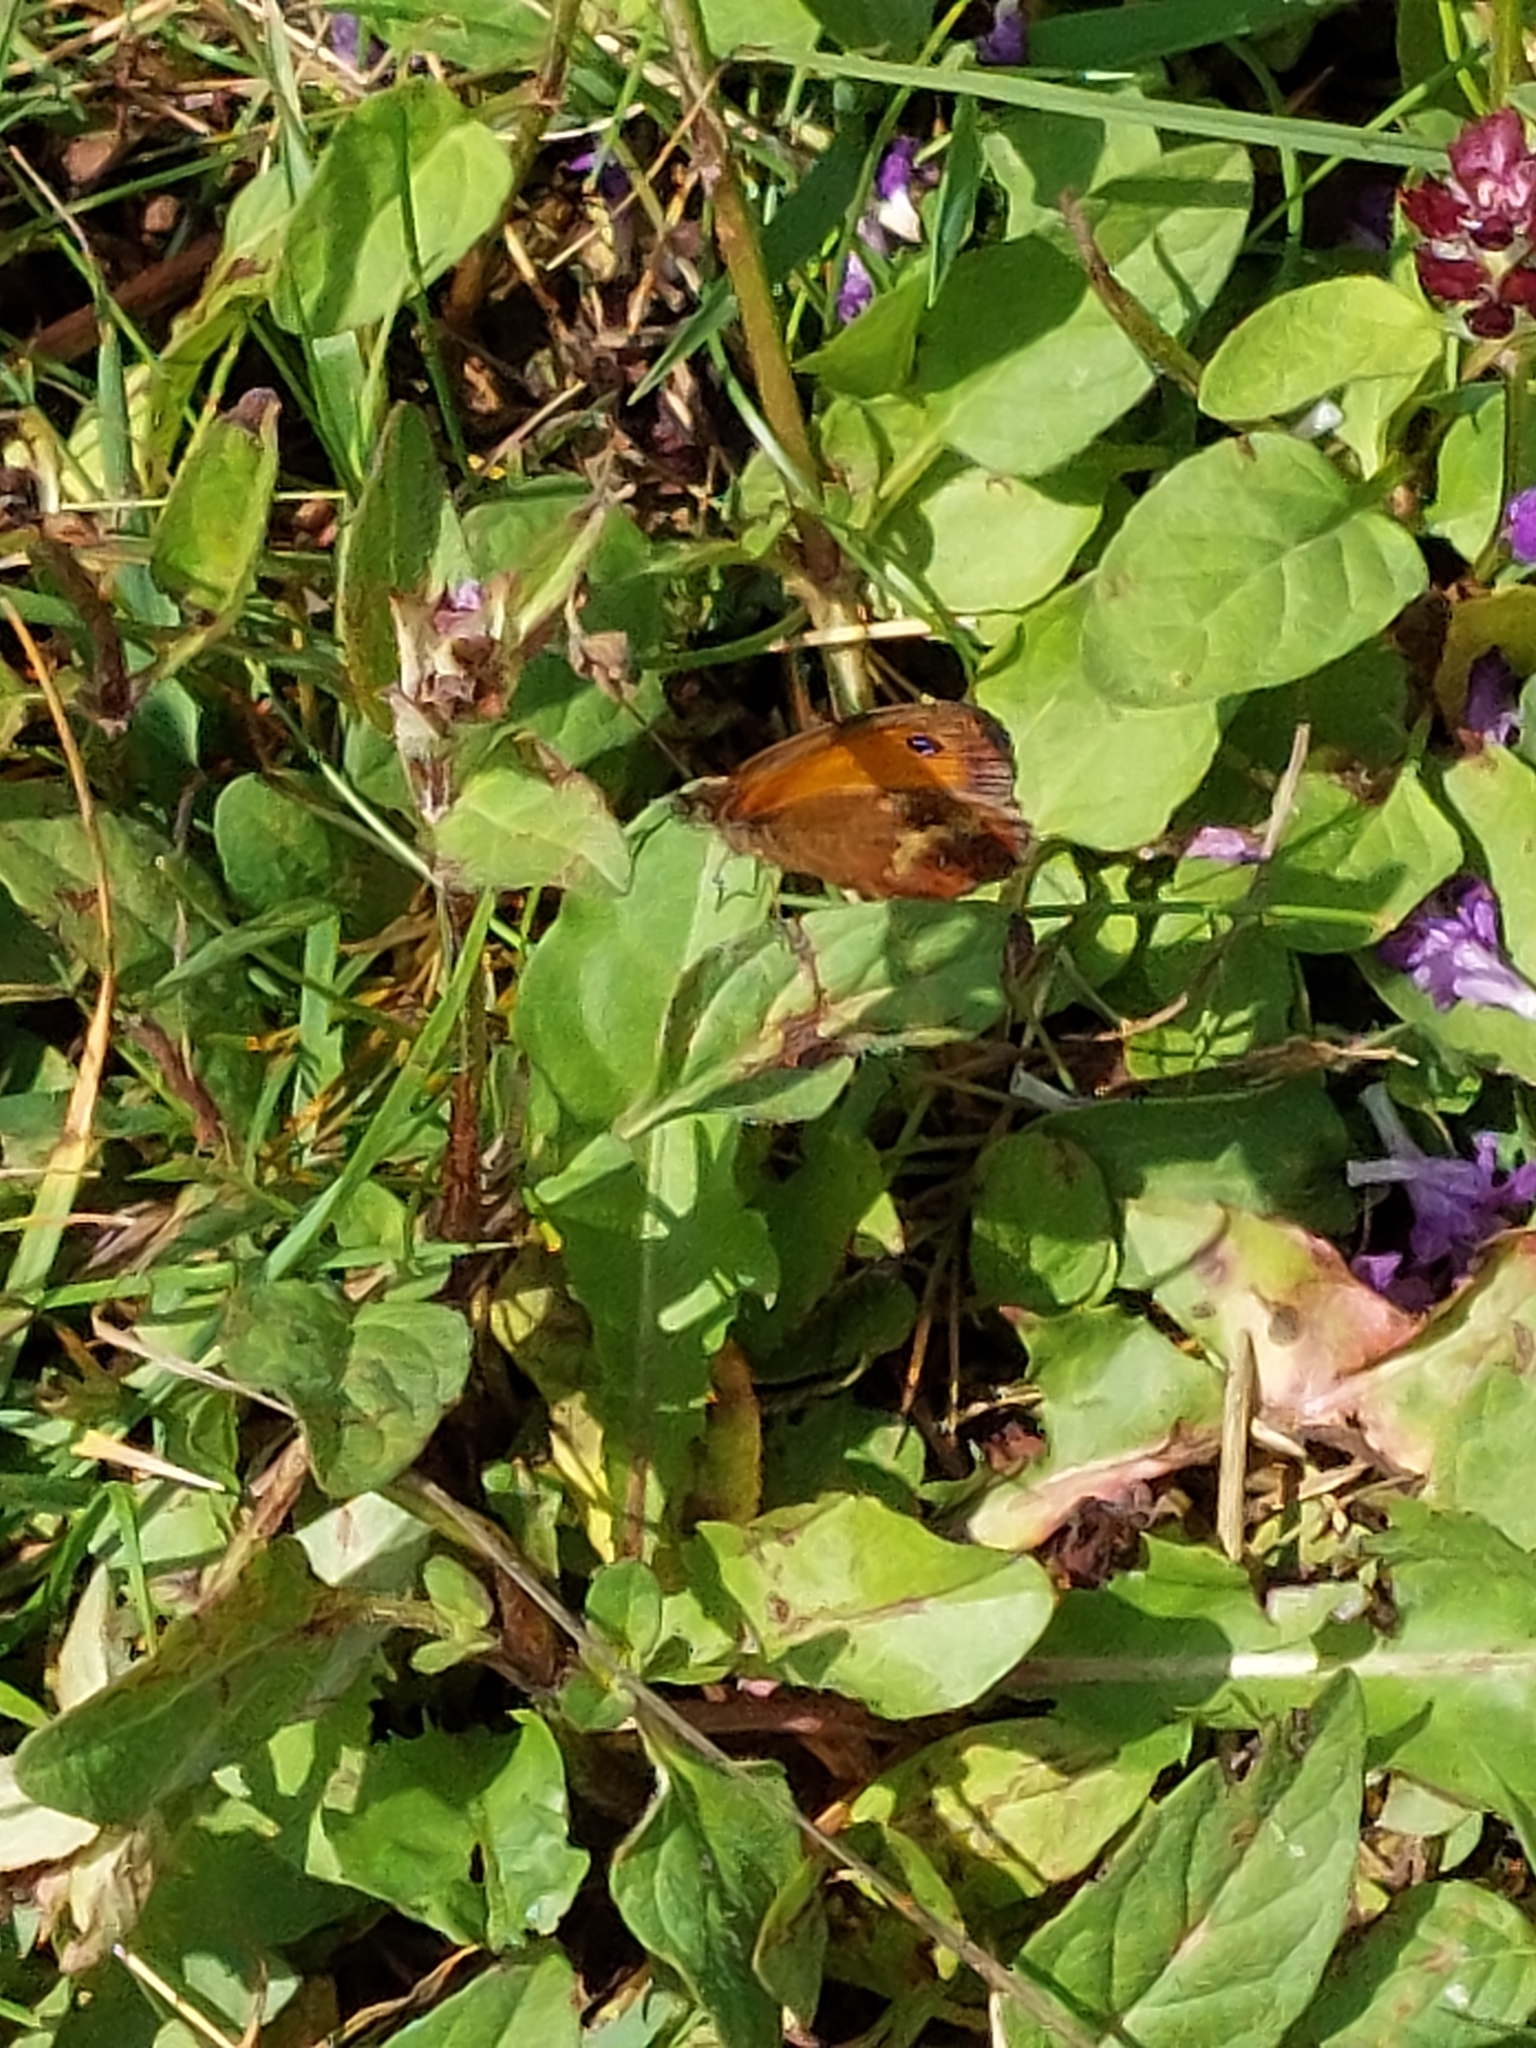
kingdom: Animalia
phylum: Arthropoda
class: Insecta
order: Lepidoptera
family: Nymphalidae
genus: Pyronia
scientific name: Pyronia tithonus
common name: Gatekeeper
